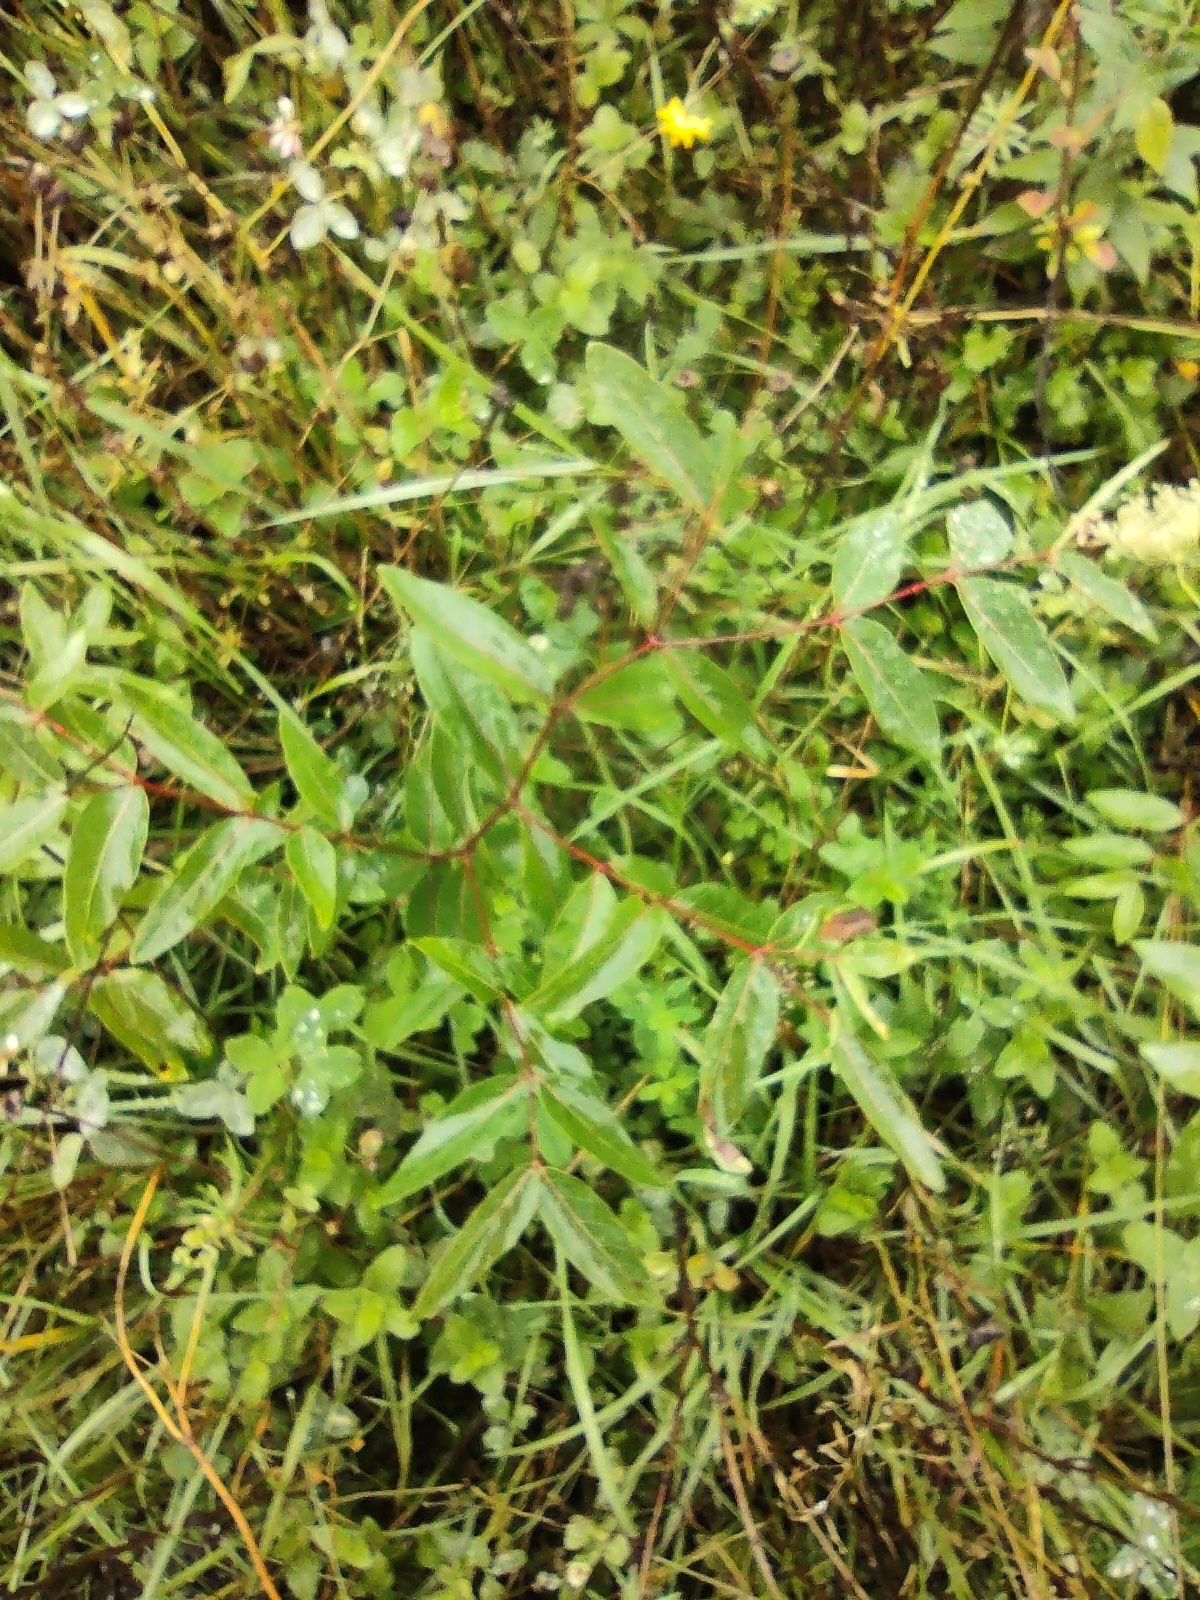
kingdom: Plantae
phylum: Tracheophyta
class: Magnoliopsida
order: Gentianales
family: Apocynaceae
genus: Apocynum
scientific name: Apocynum cannabinum
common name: Hemp dogbane
